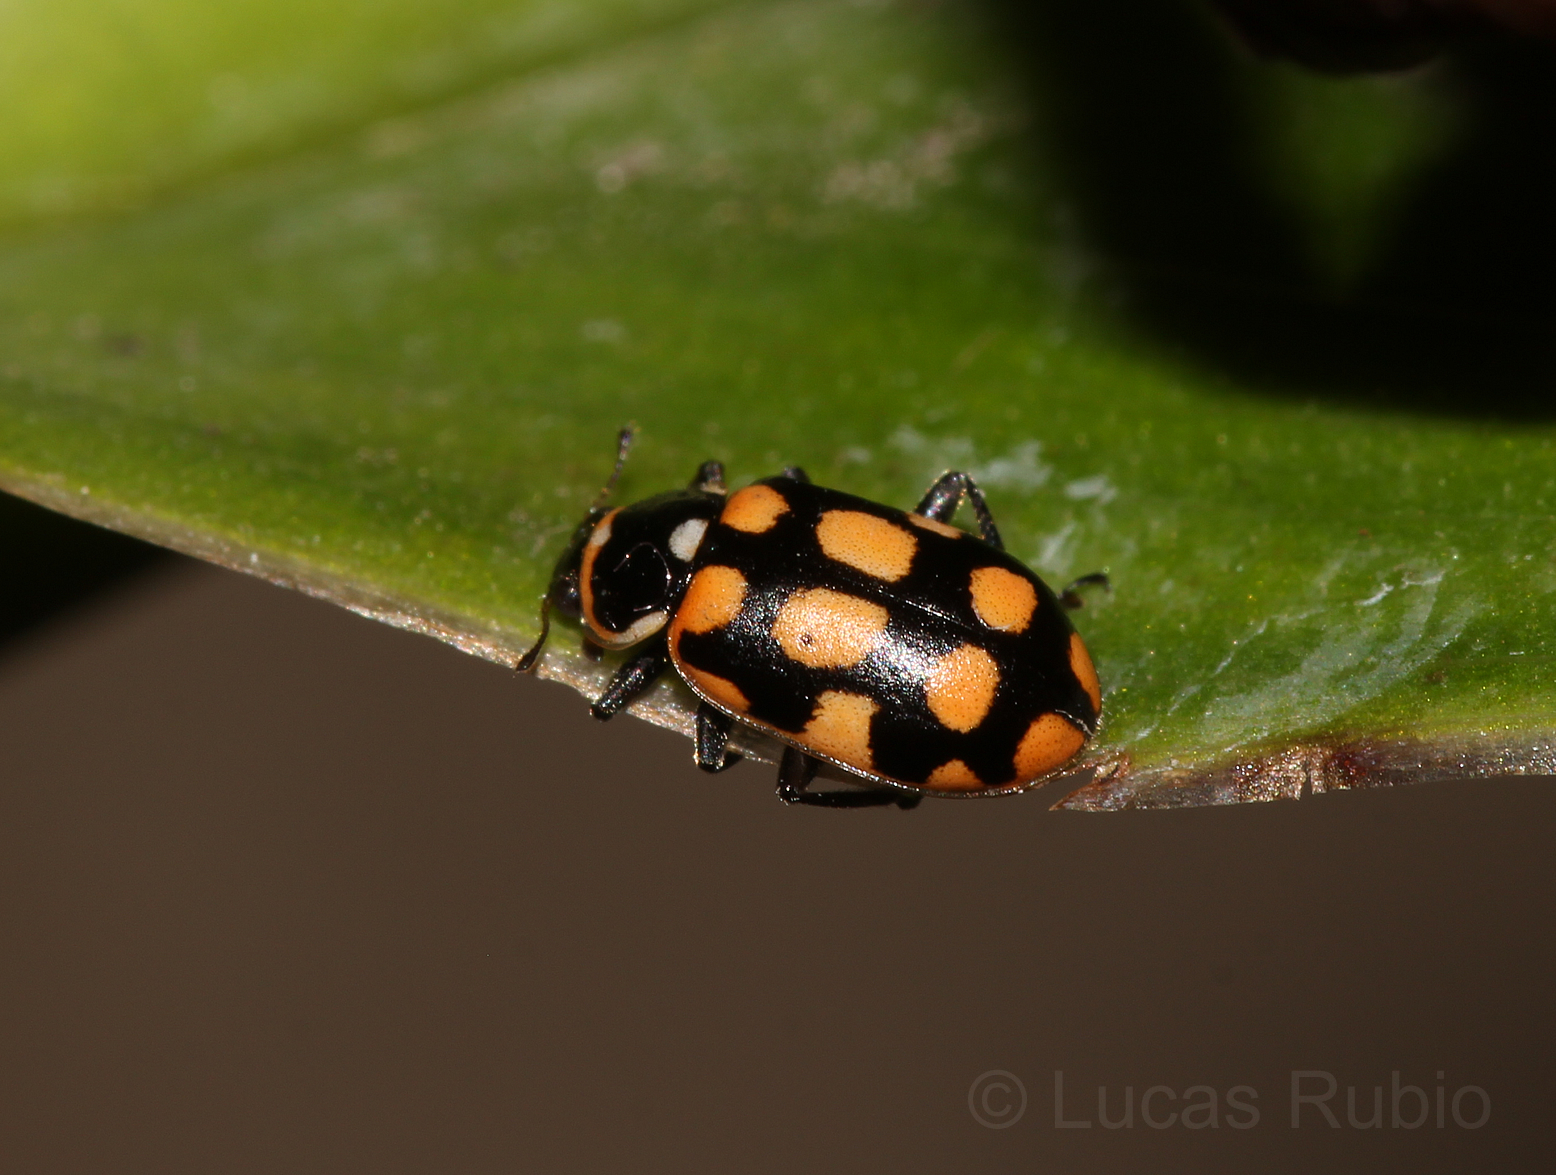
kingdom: Animalia
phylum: Arthropoda
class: Insecta
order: Coleoptera
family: Coccinellidae
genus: Eriopis
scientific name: Eriopis
